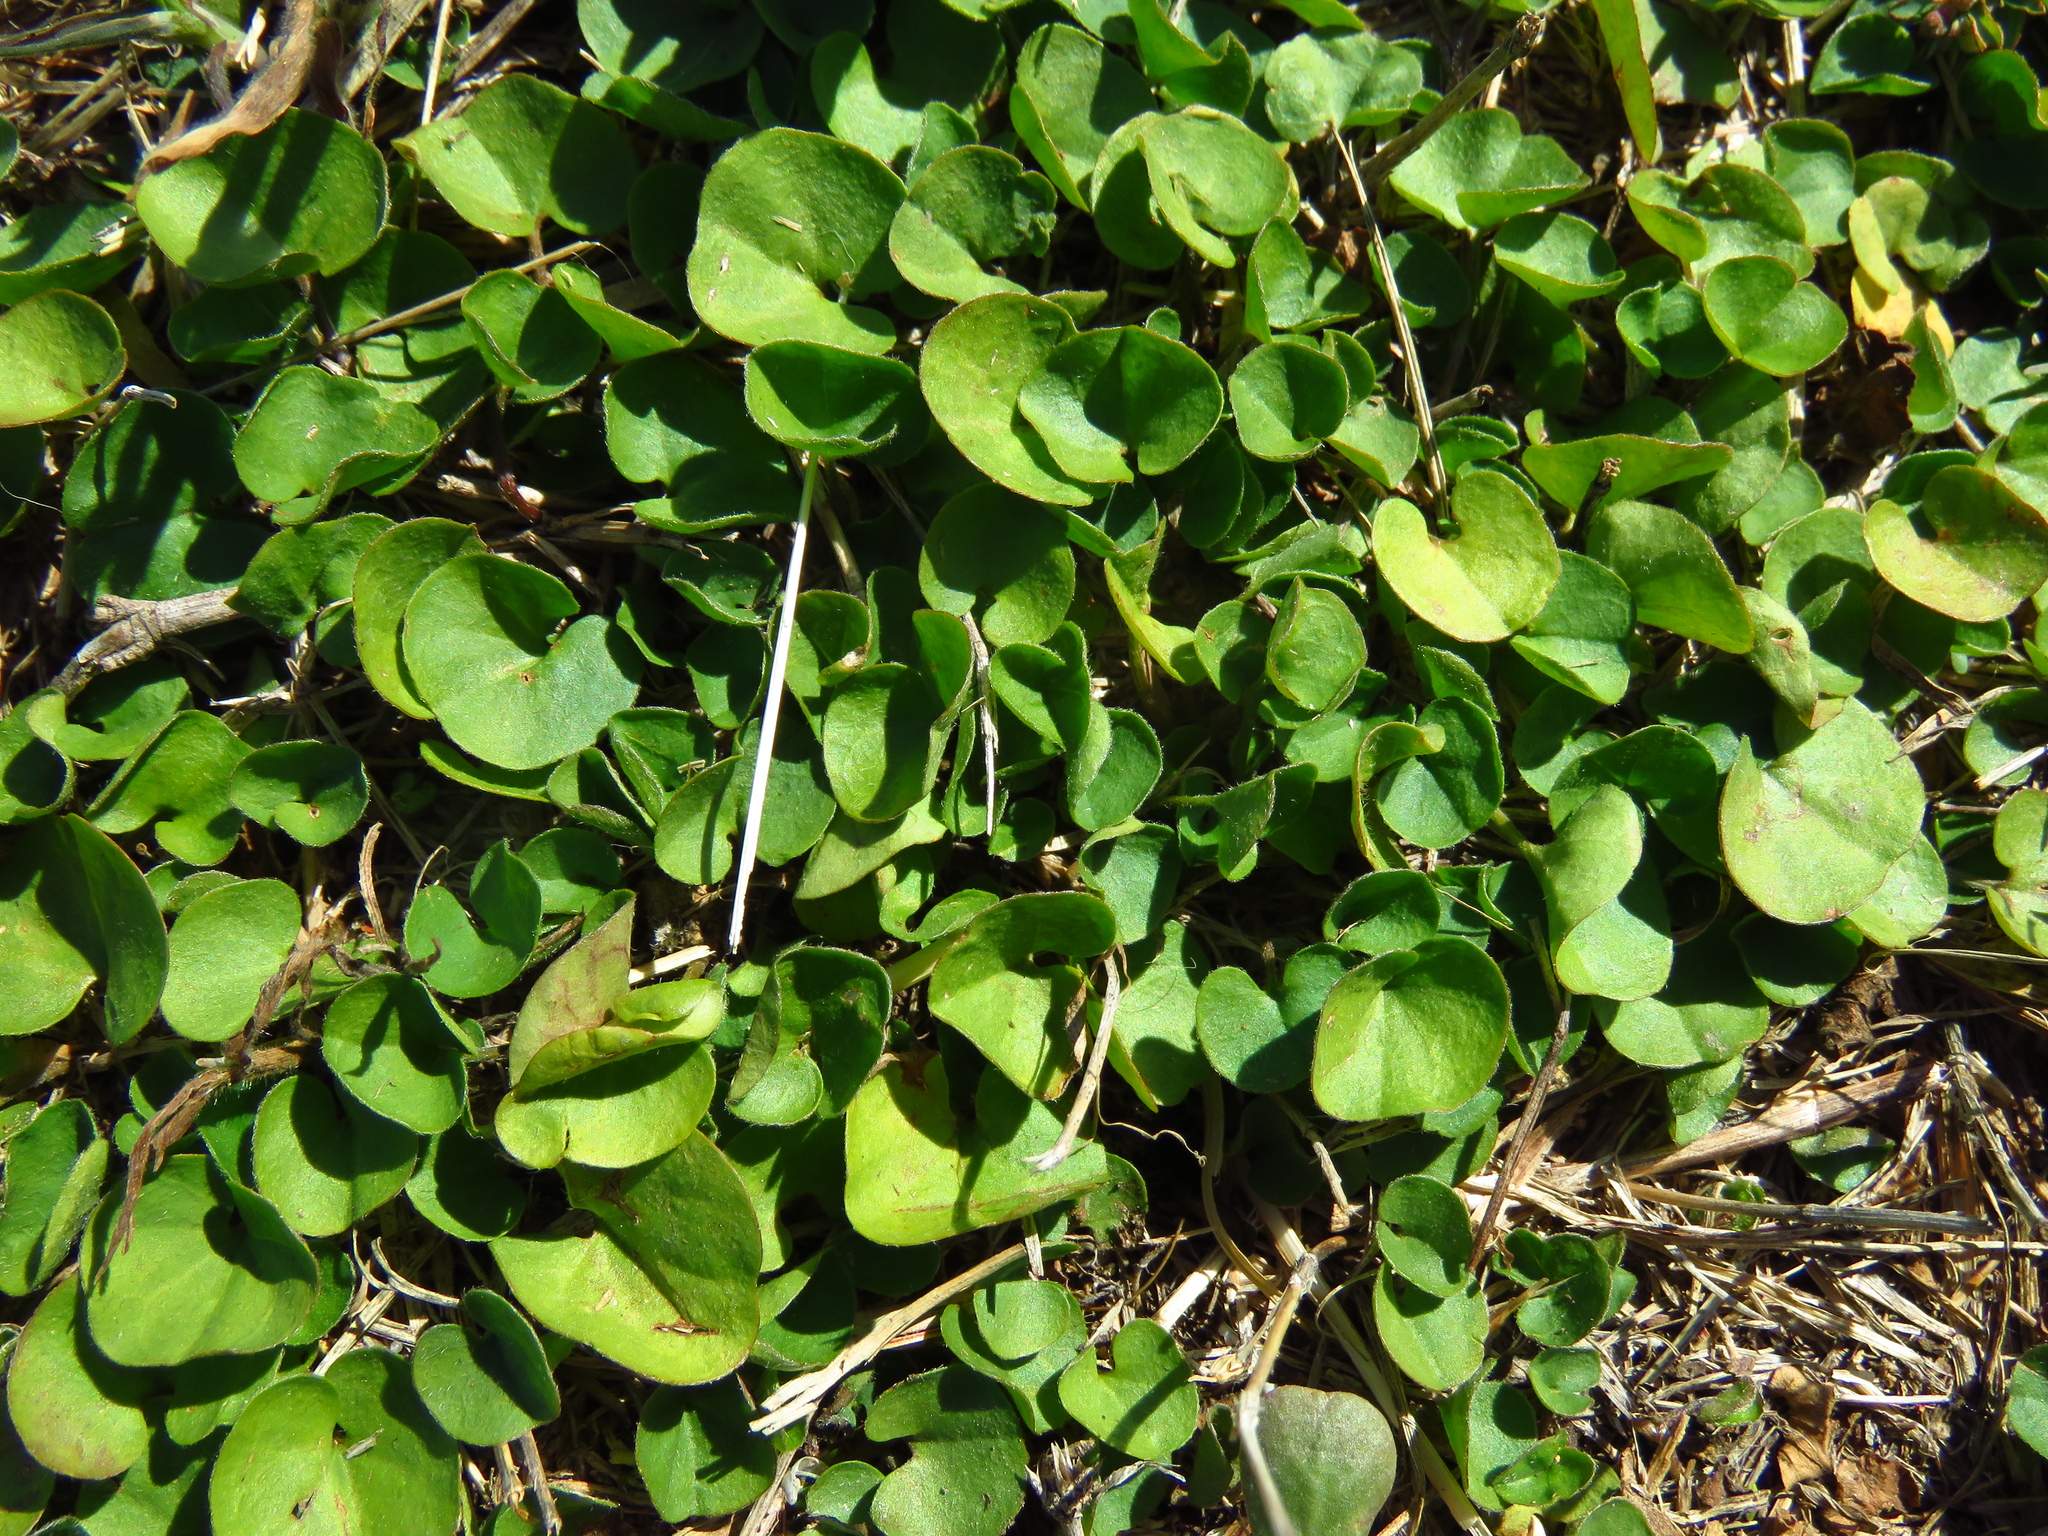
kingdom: Plantae
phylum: Tracheophyta
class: Magnoliopsida
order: Solanales
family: Convolvulaceae
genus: Dichondra
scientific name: Dichondra carolinensis
